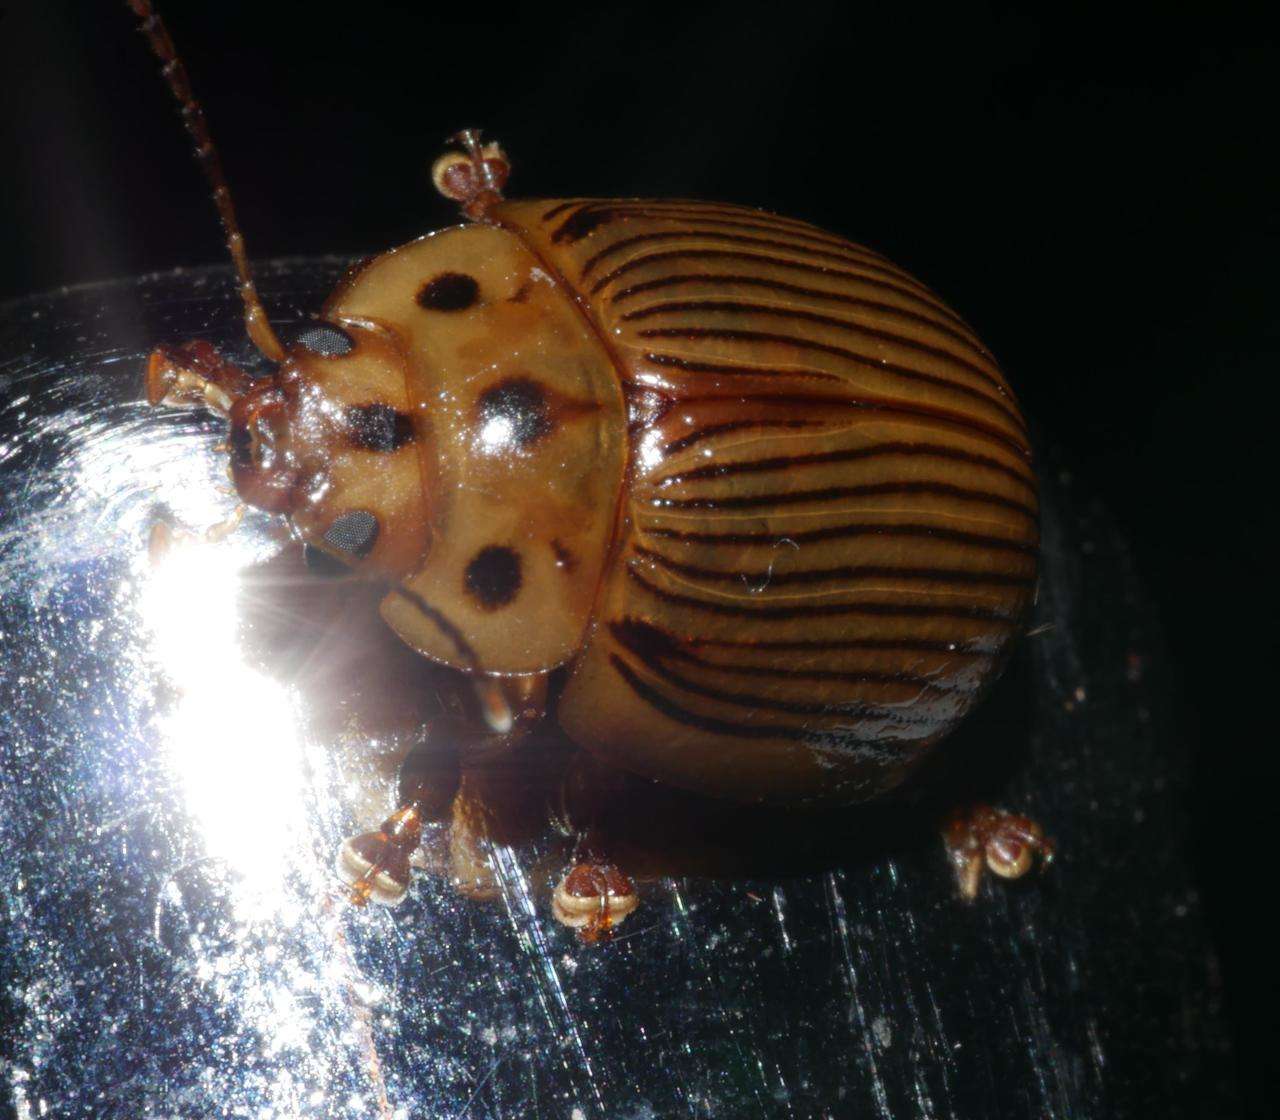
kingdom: Animalia
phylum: Arthropoda
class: Insecta
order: Coleoptera
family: Chrysomelidae
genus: Paropsisterna
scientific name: Paropsisterna
